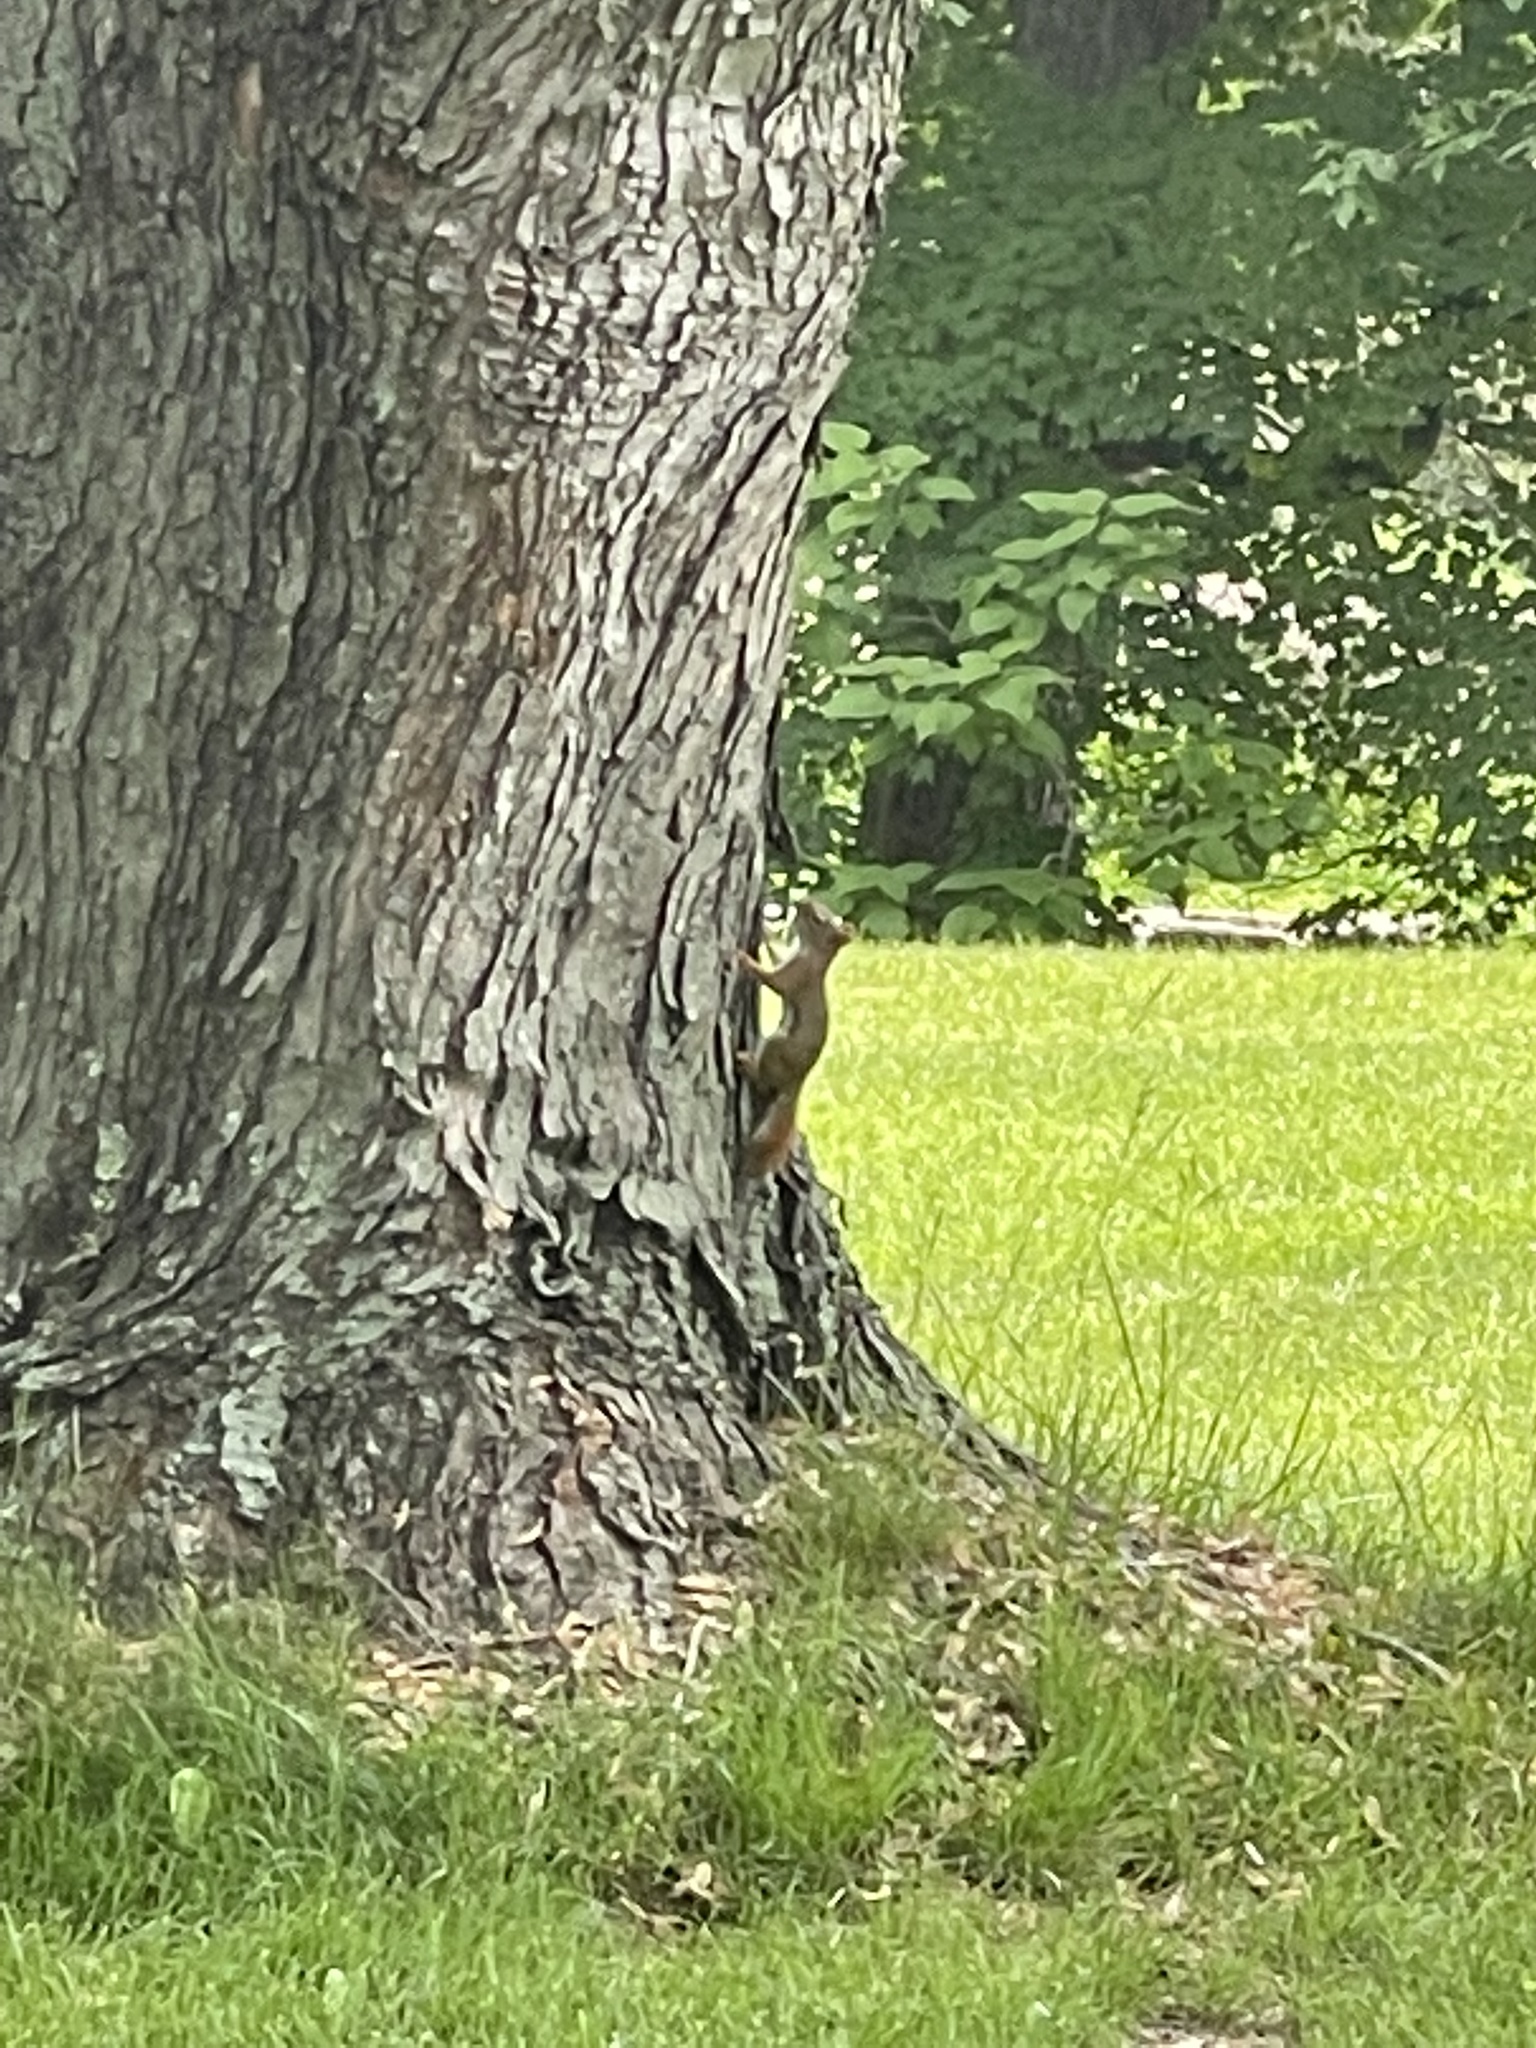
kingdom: Animalia
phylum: Chordata
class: Mammalia
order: Rodentia
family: Sciuridae
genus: Tamiasciurus
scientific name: Tamiasciurus hudsonicus
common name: Red squirrel
